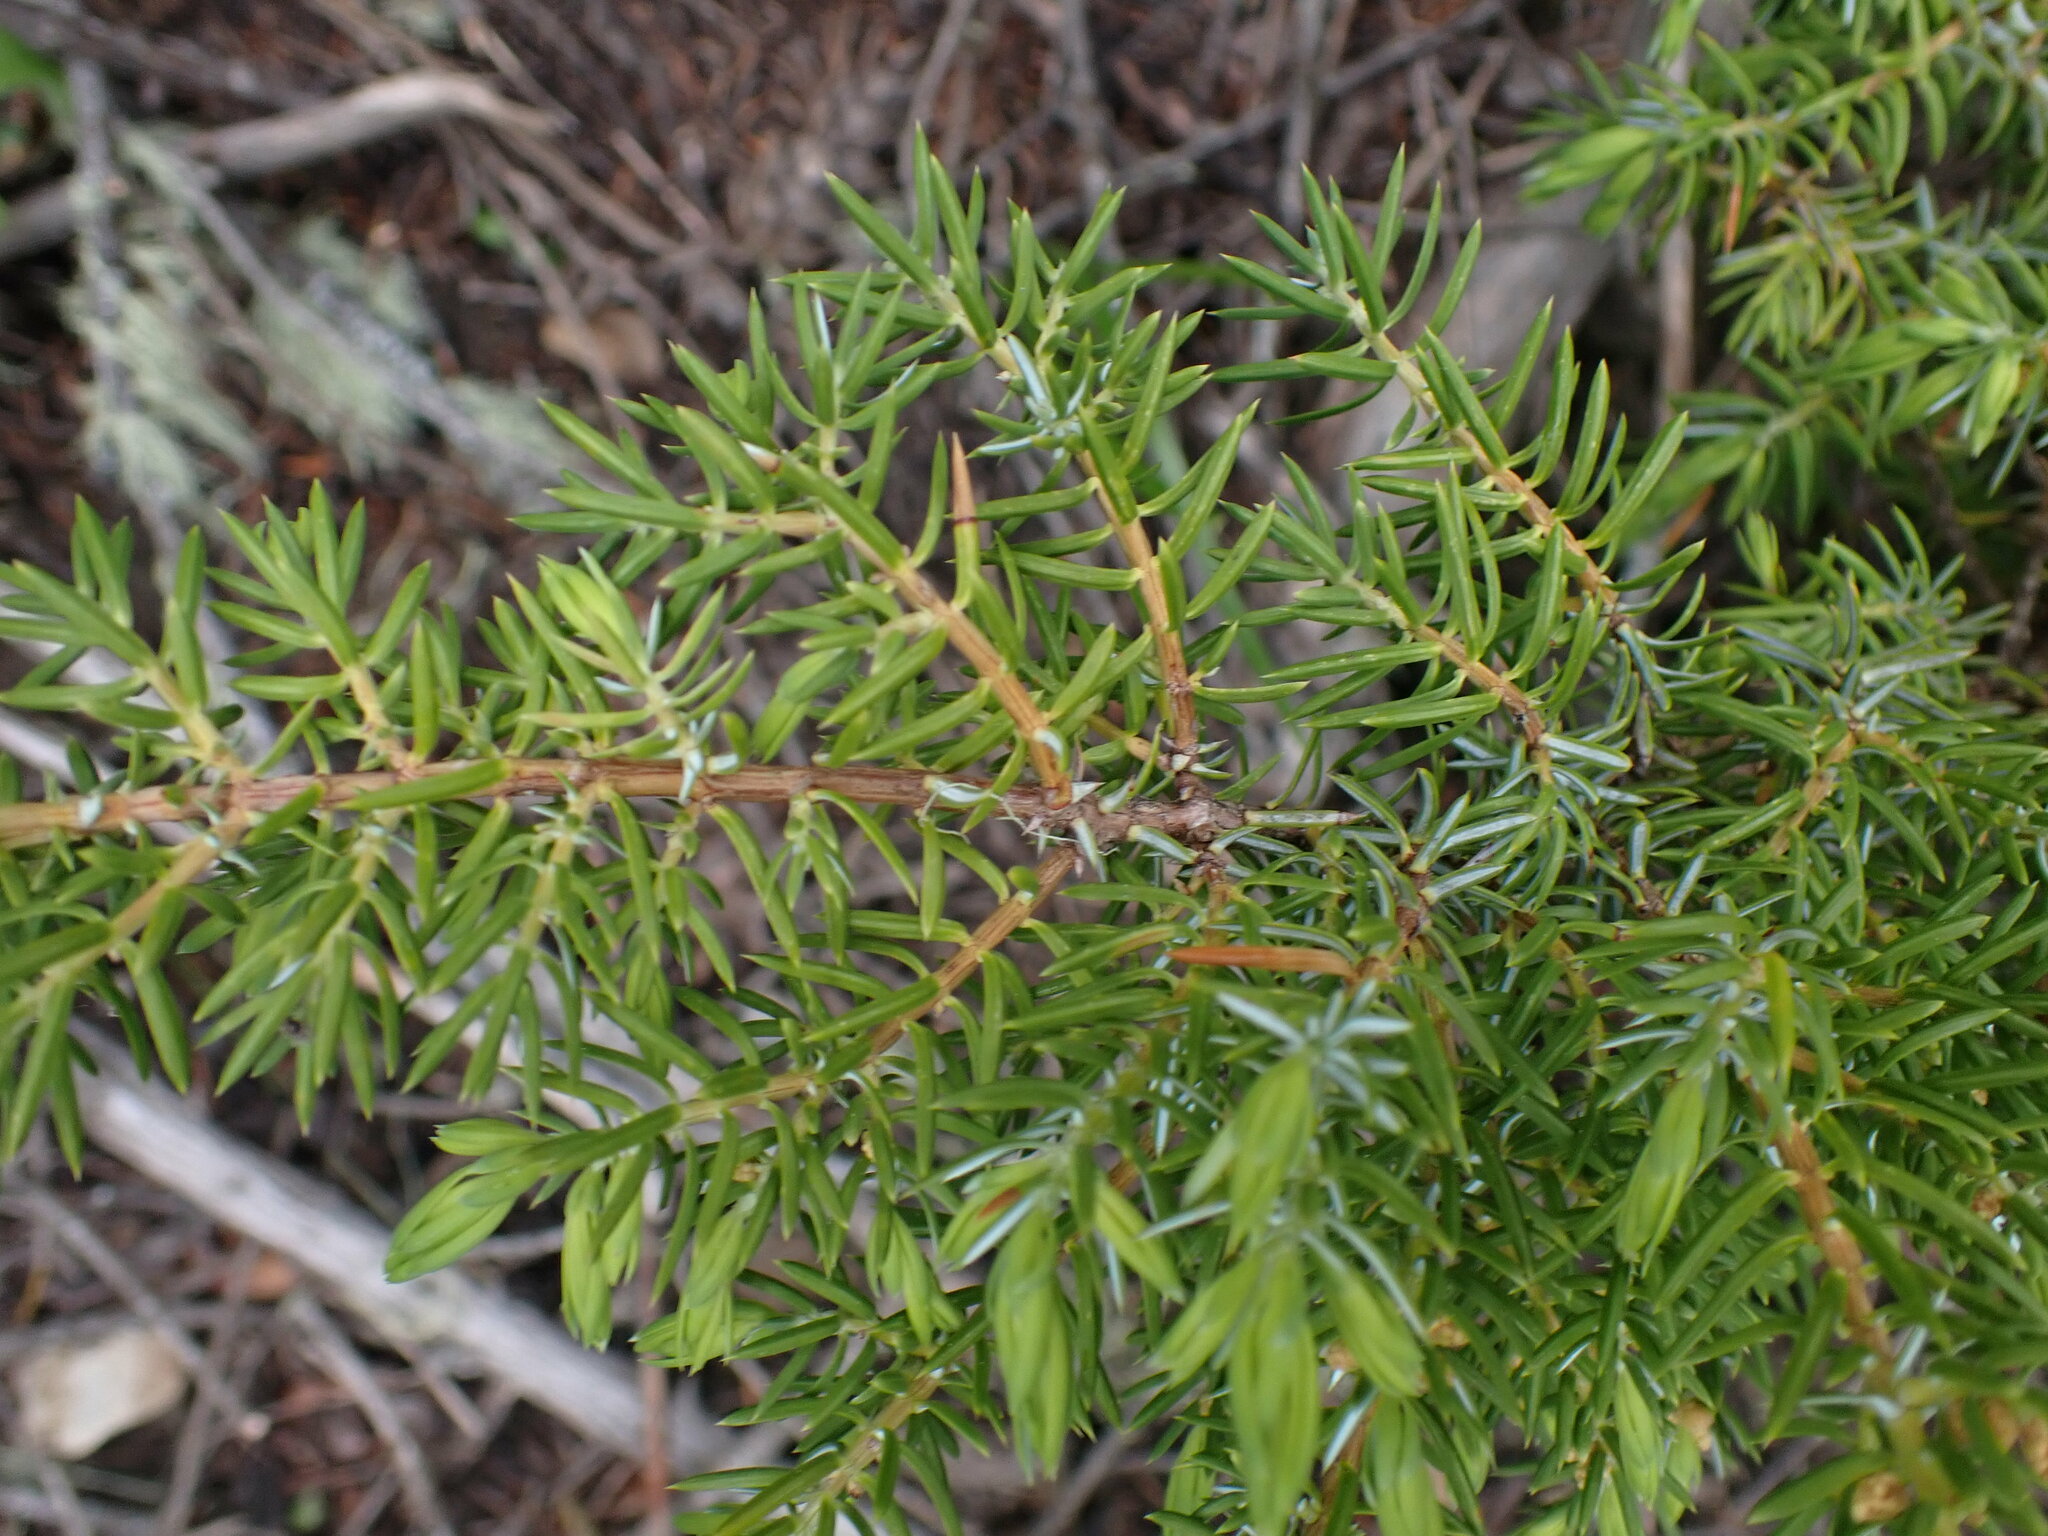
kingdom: Plantae
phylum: Tracheophyta
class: Pinopsida
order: Pinales
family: Cupressaceae
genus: Juniperus
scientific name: Juniperus communis
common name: Common juniper
